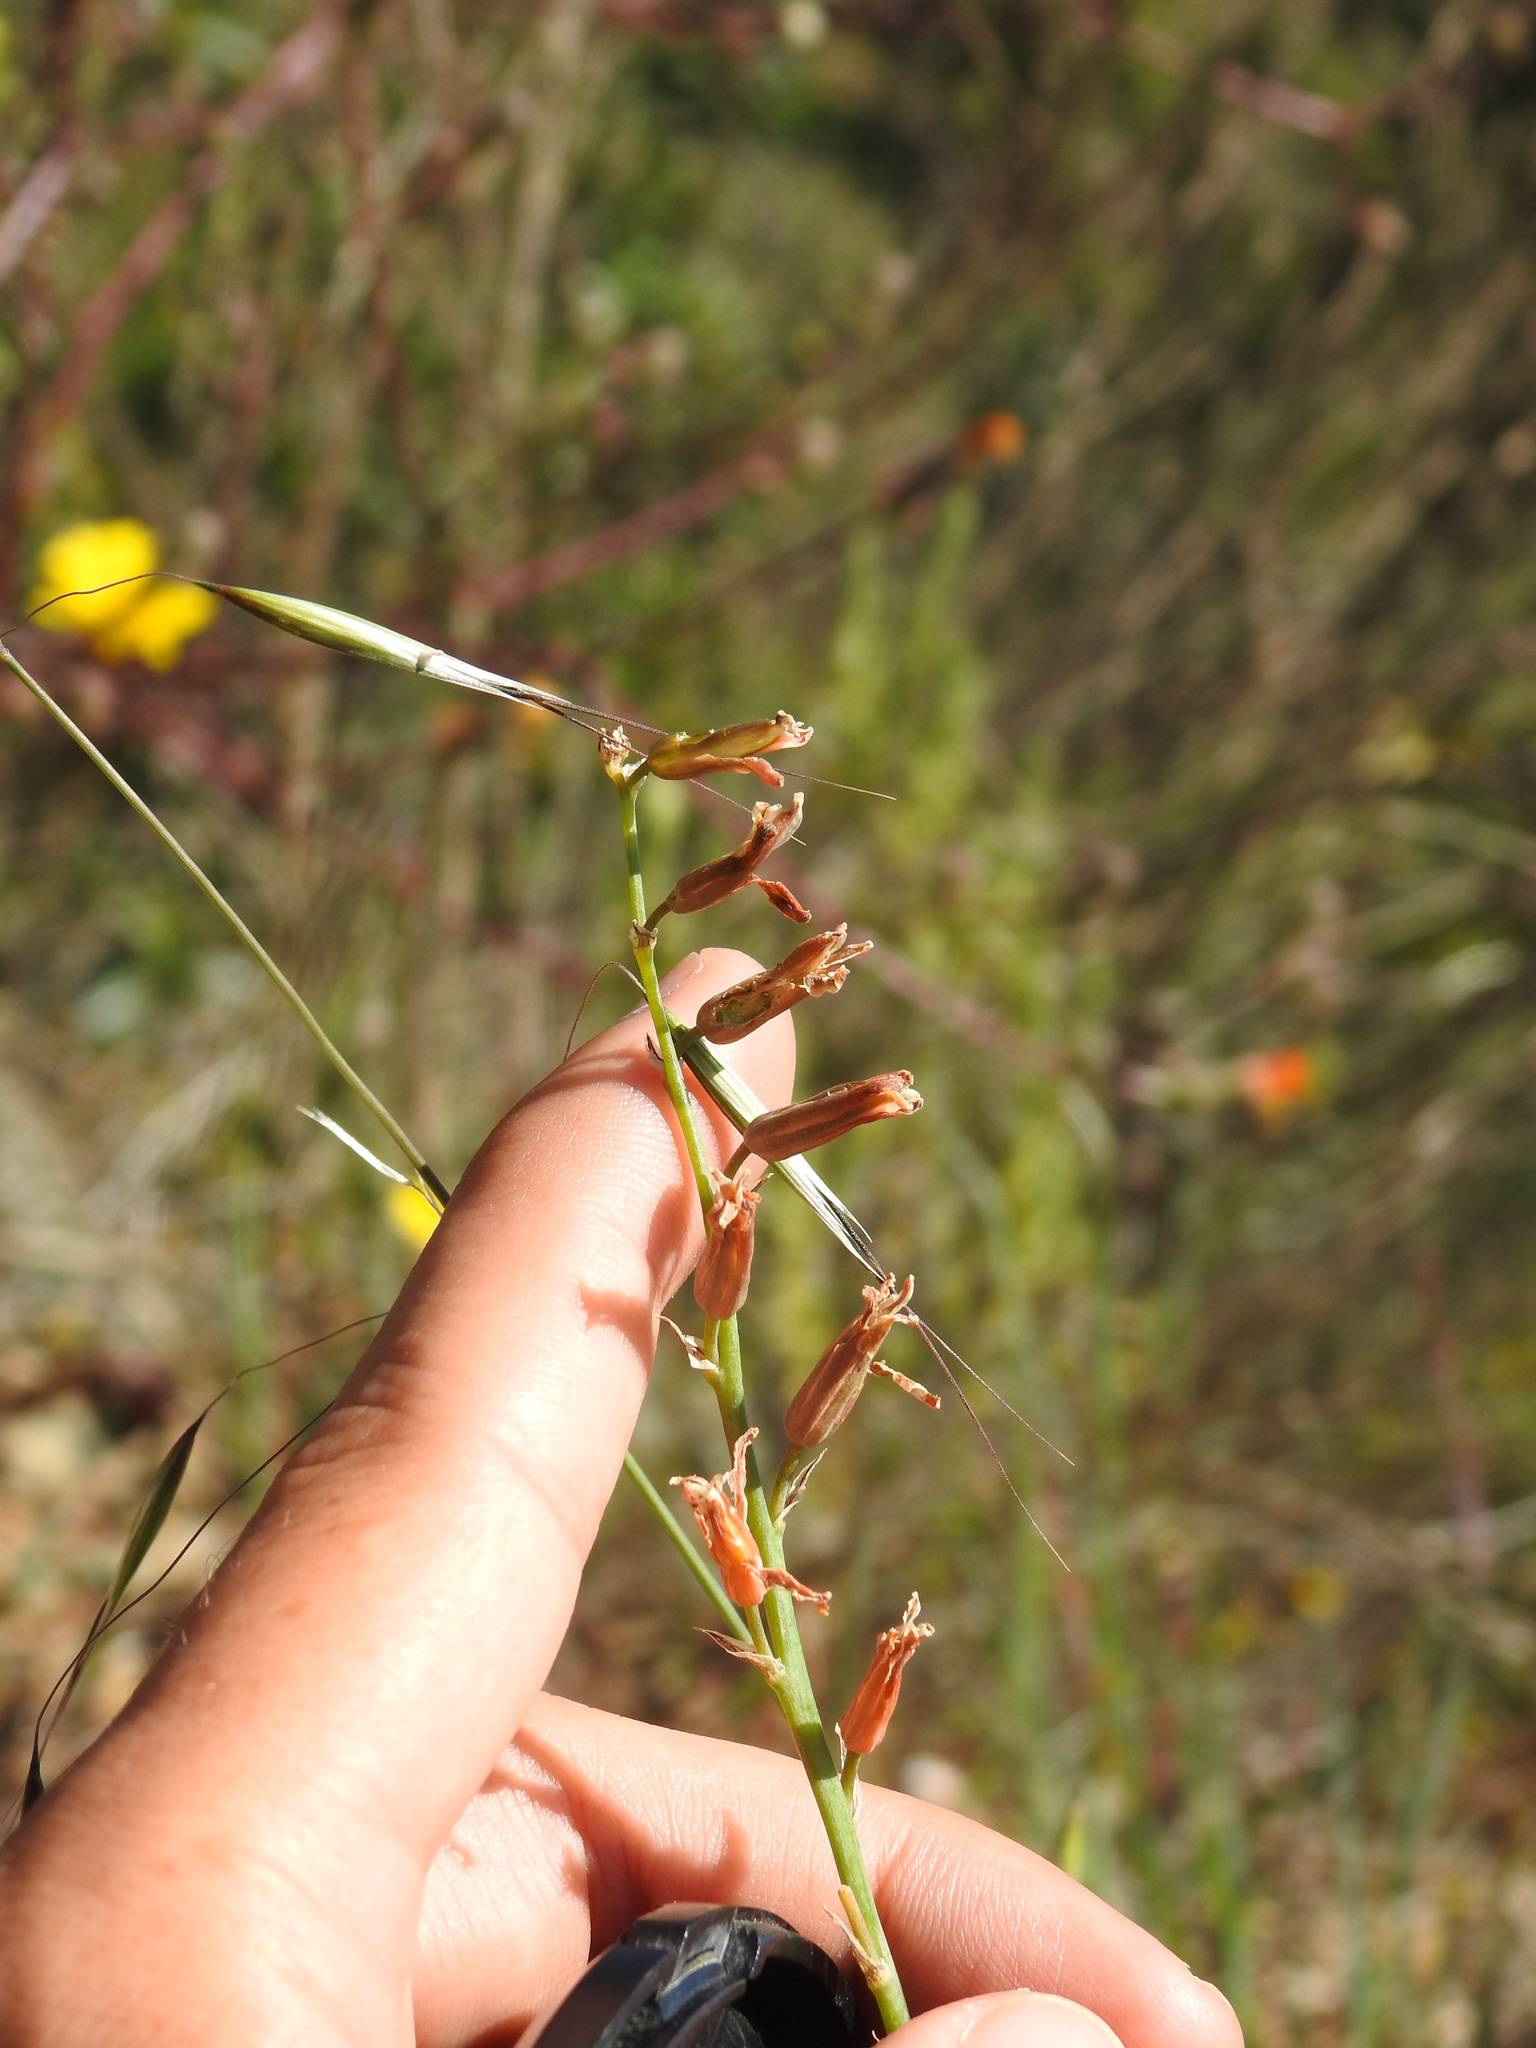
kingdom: Plantae
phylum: Tracheophyta
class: Liliopsida
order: Asparagales
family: Asparagaceae
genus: Dipcadi
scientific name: Dipcadi serotinum
